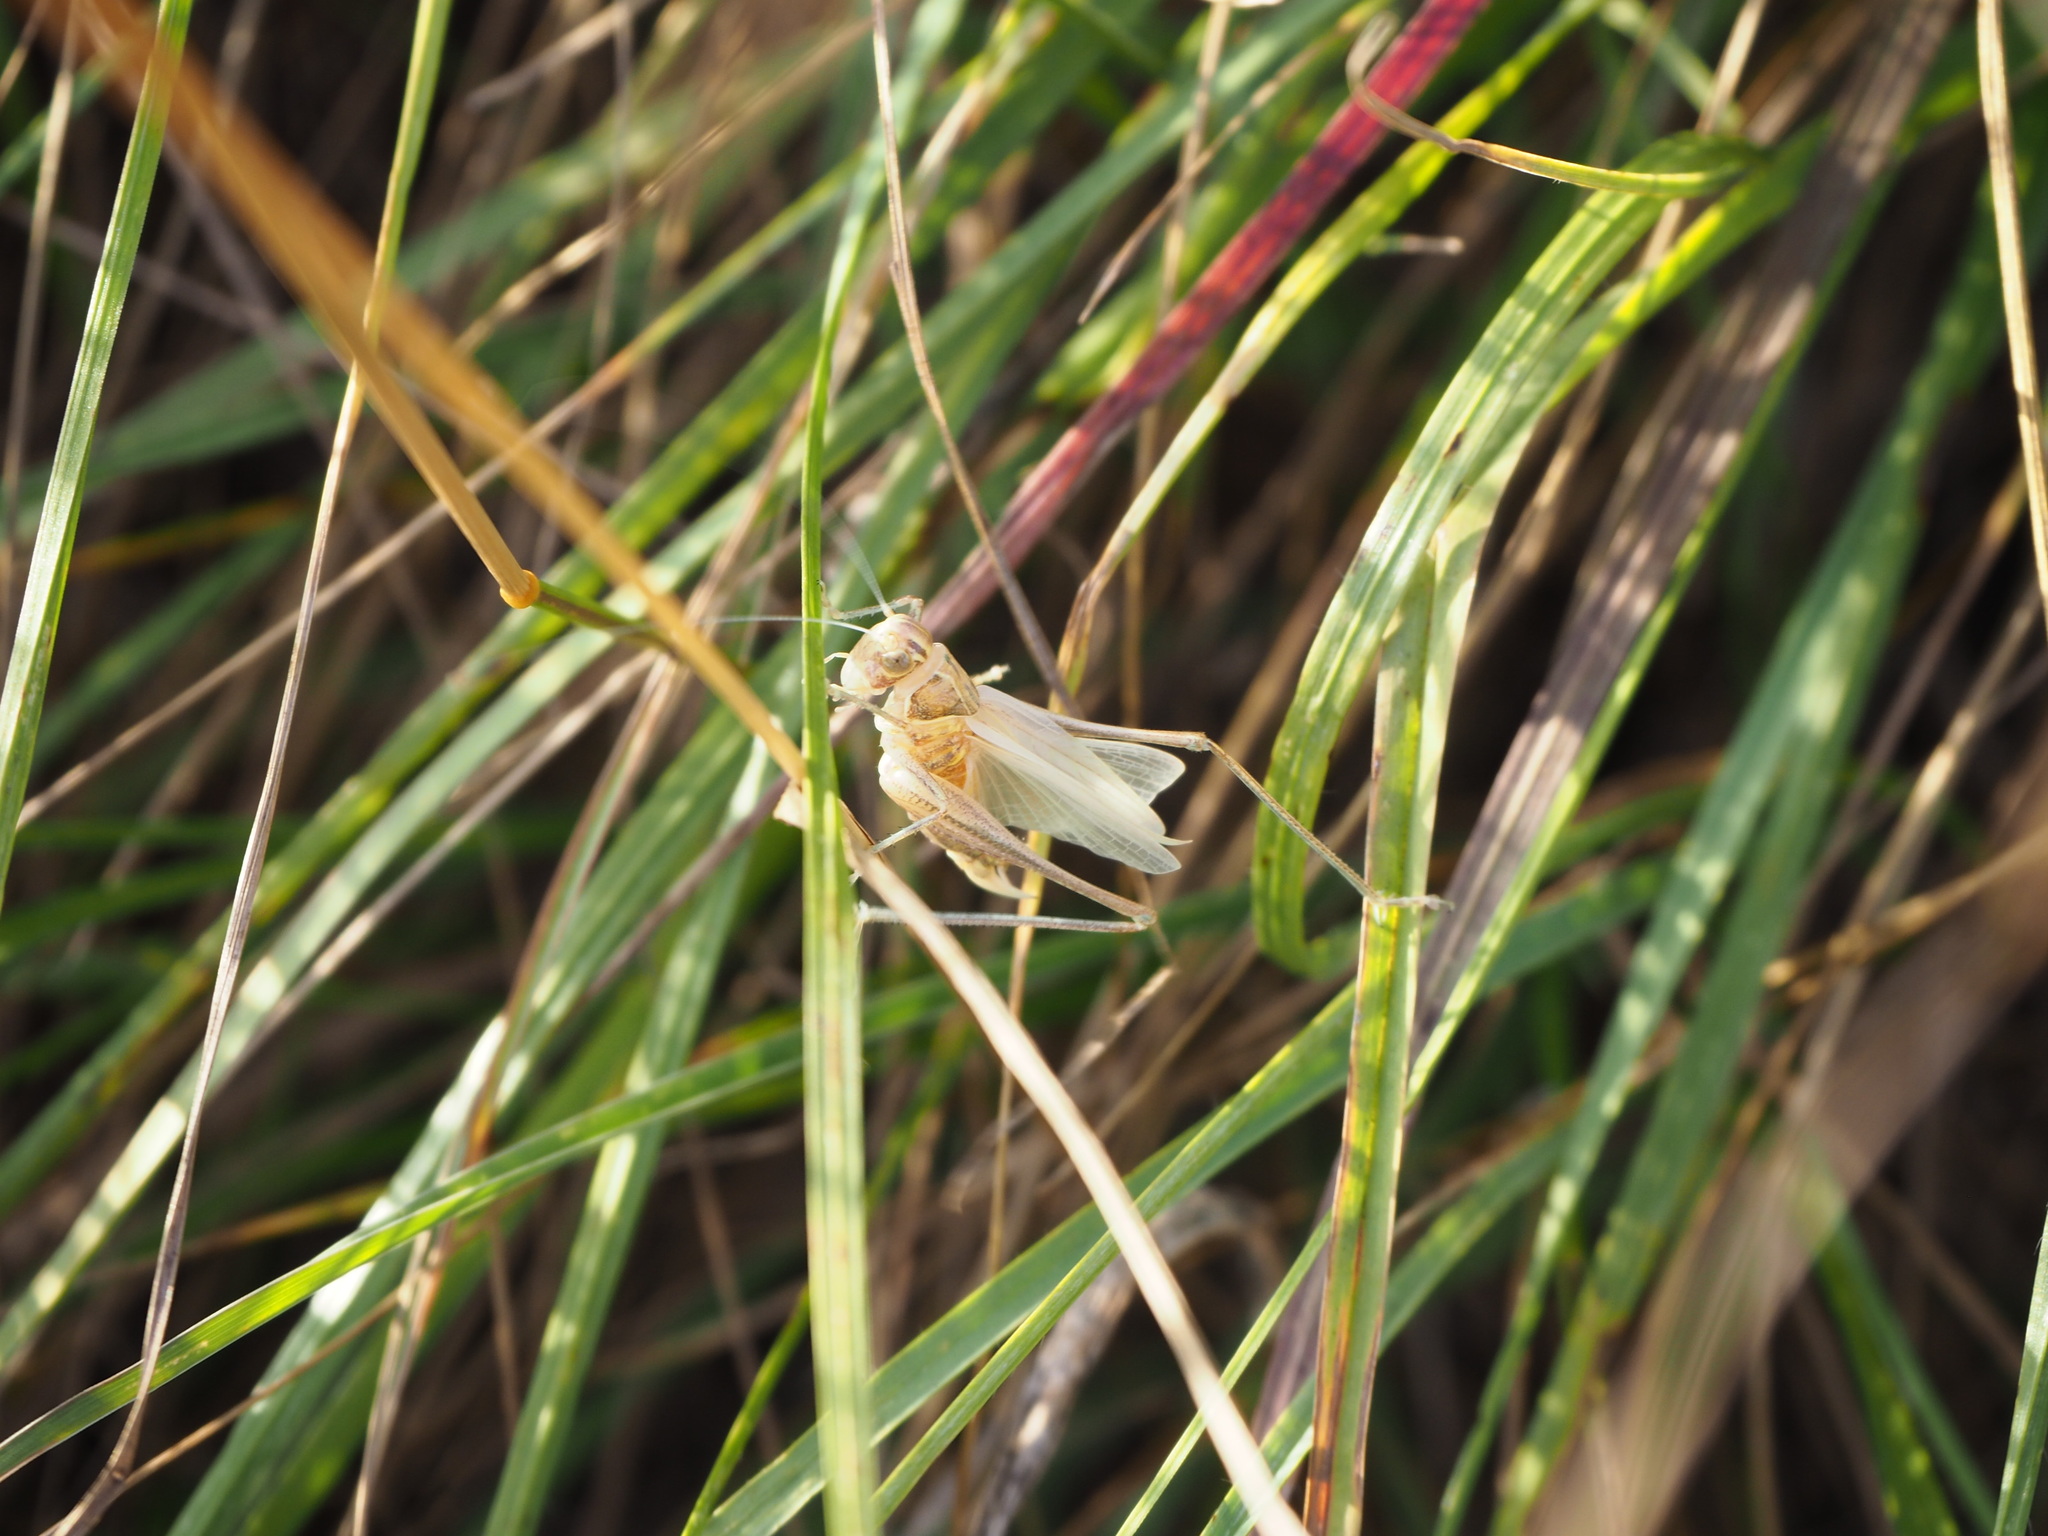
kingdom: Animalia
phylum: Arthropoda
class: Insecta
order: Orthoptera
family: Tettigoniidae
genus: Tessellana
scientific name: Tessellana tessellata
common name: Grasshopper
